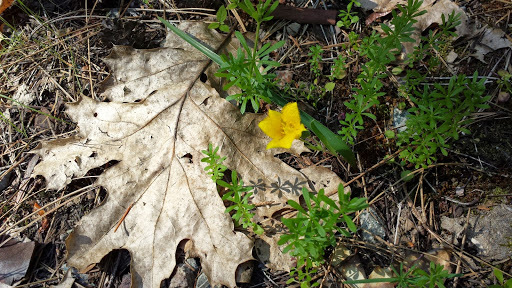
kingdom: Plantae
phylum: Tracheophyta
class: Liliopsida
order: Liliales
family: Liliaceae
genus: Calochortus
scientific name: Calochortus monophyllus
